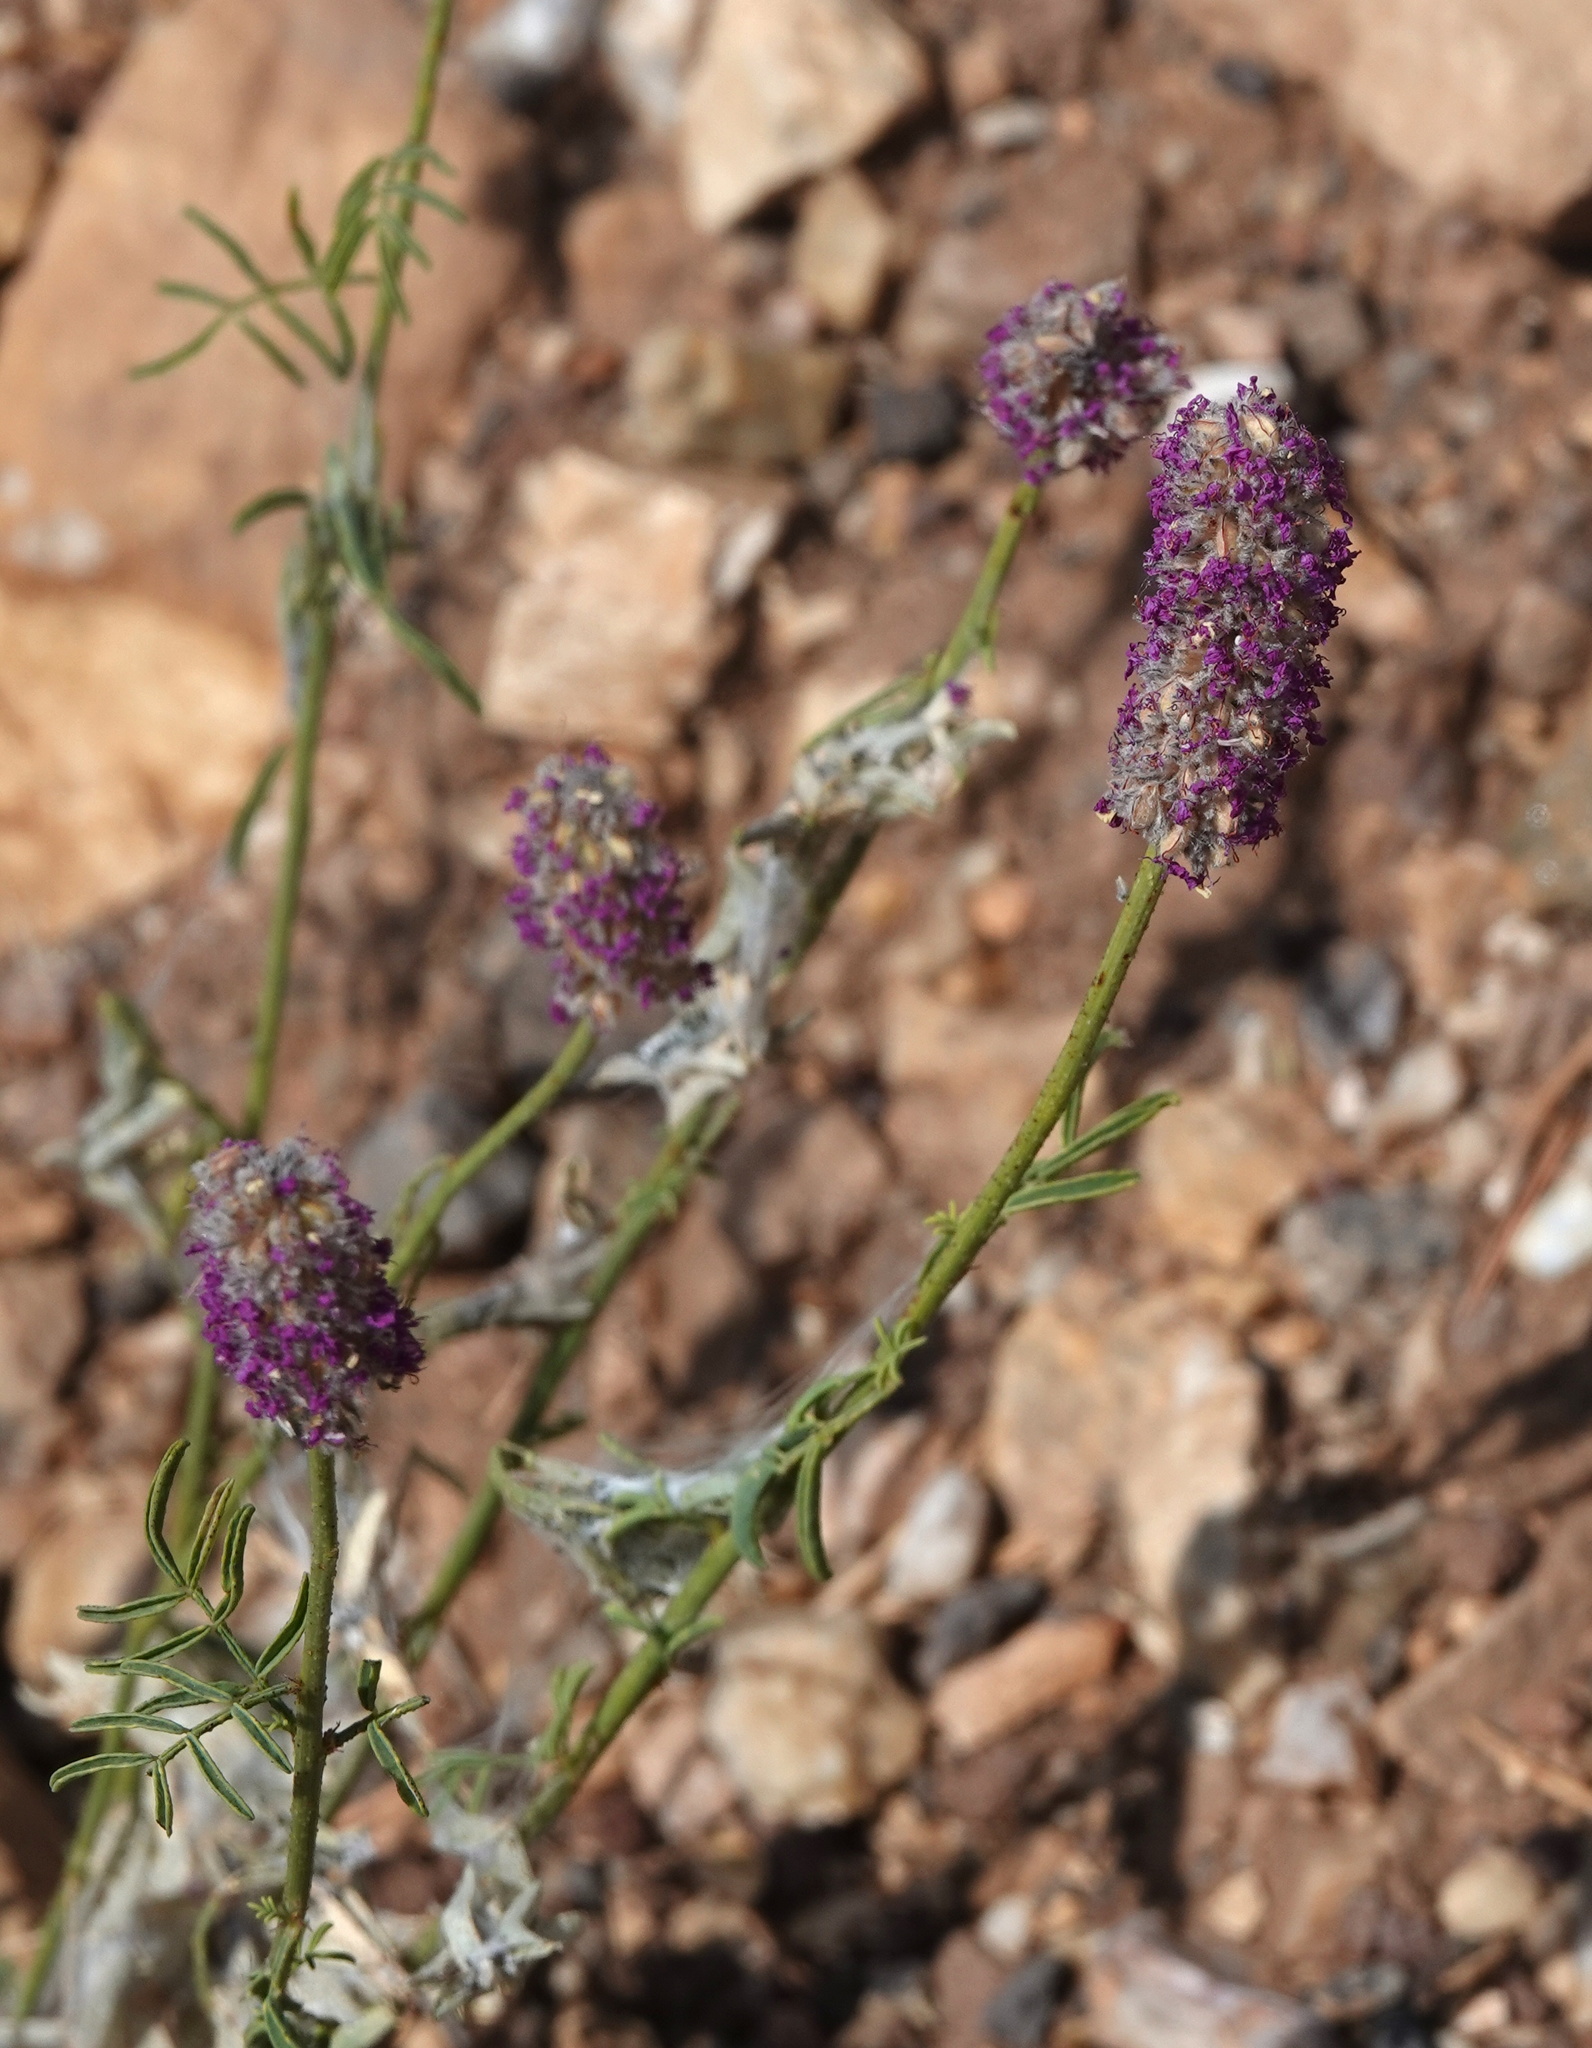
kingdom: Plantae
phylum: Tracheophyta
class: Magnoliopsida
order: Fabales
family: Fabaceae
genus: Dalea
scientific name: Dalea searlsiae
